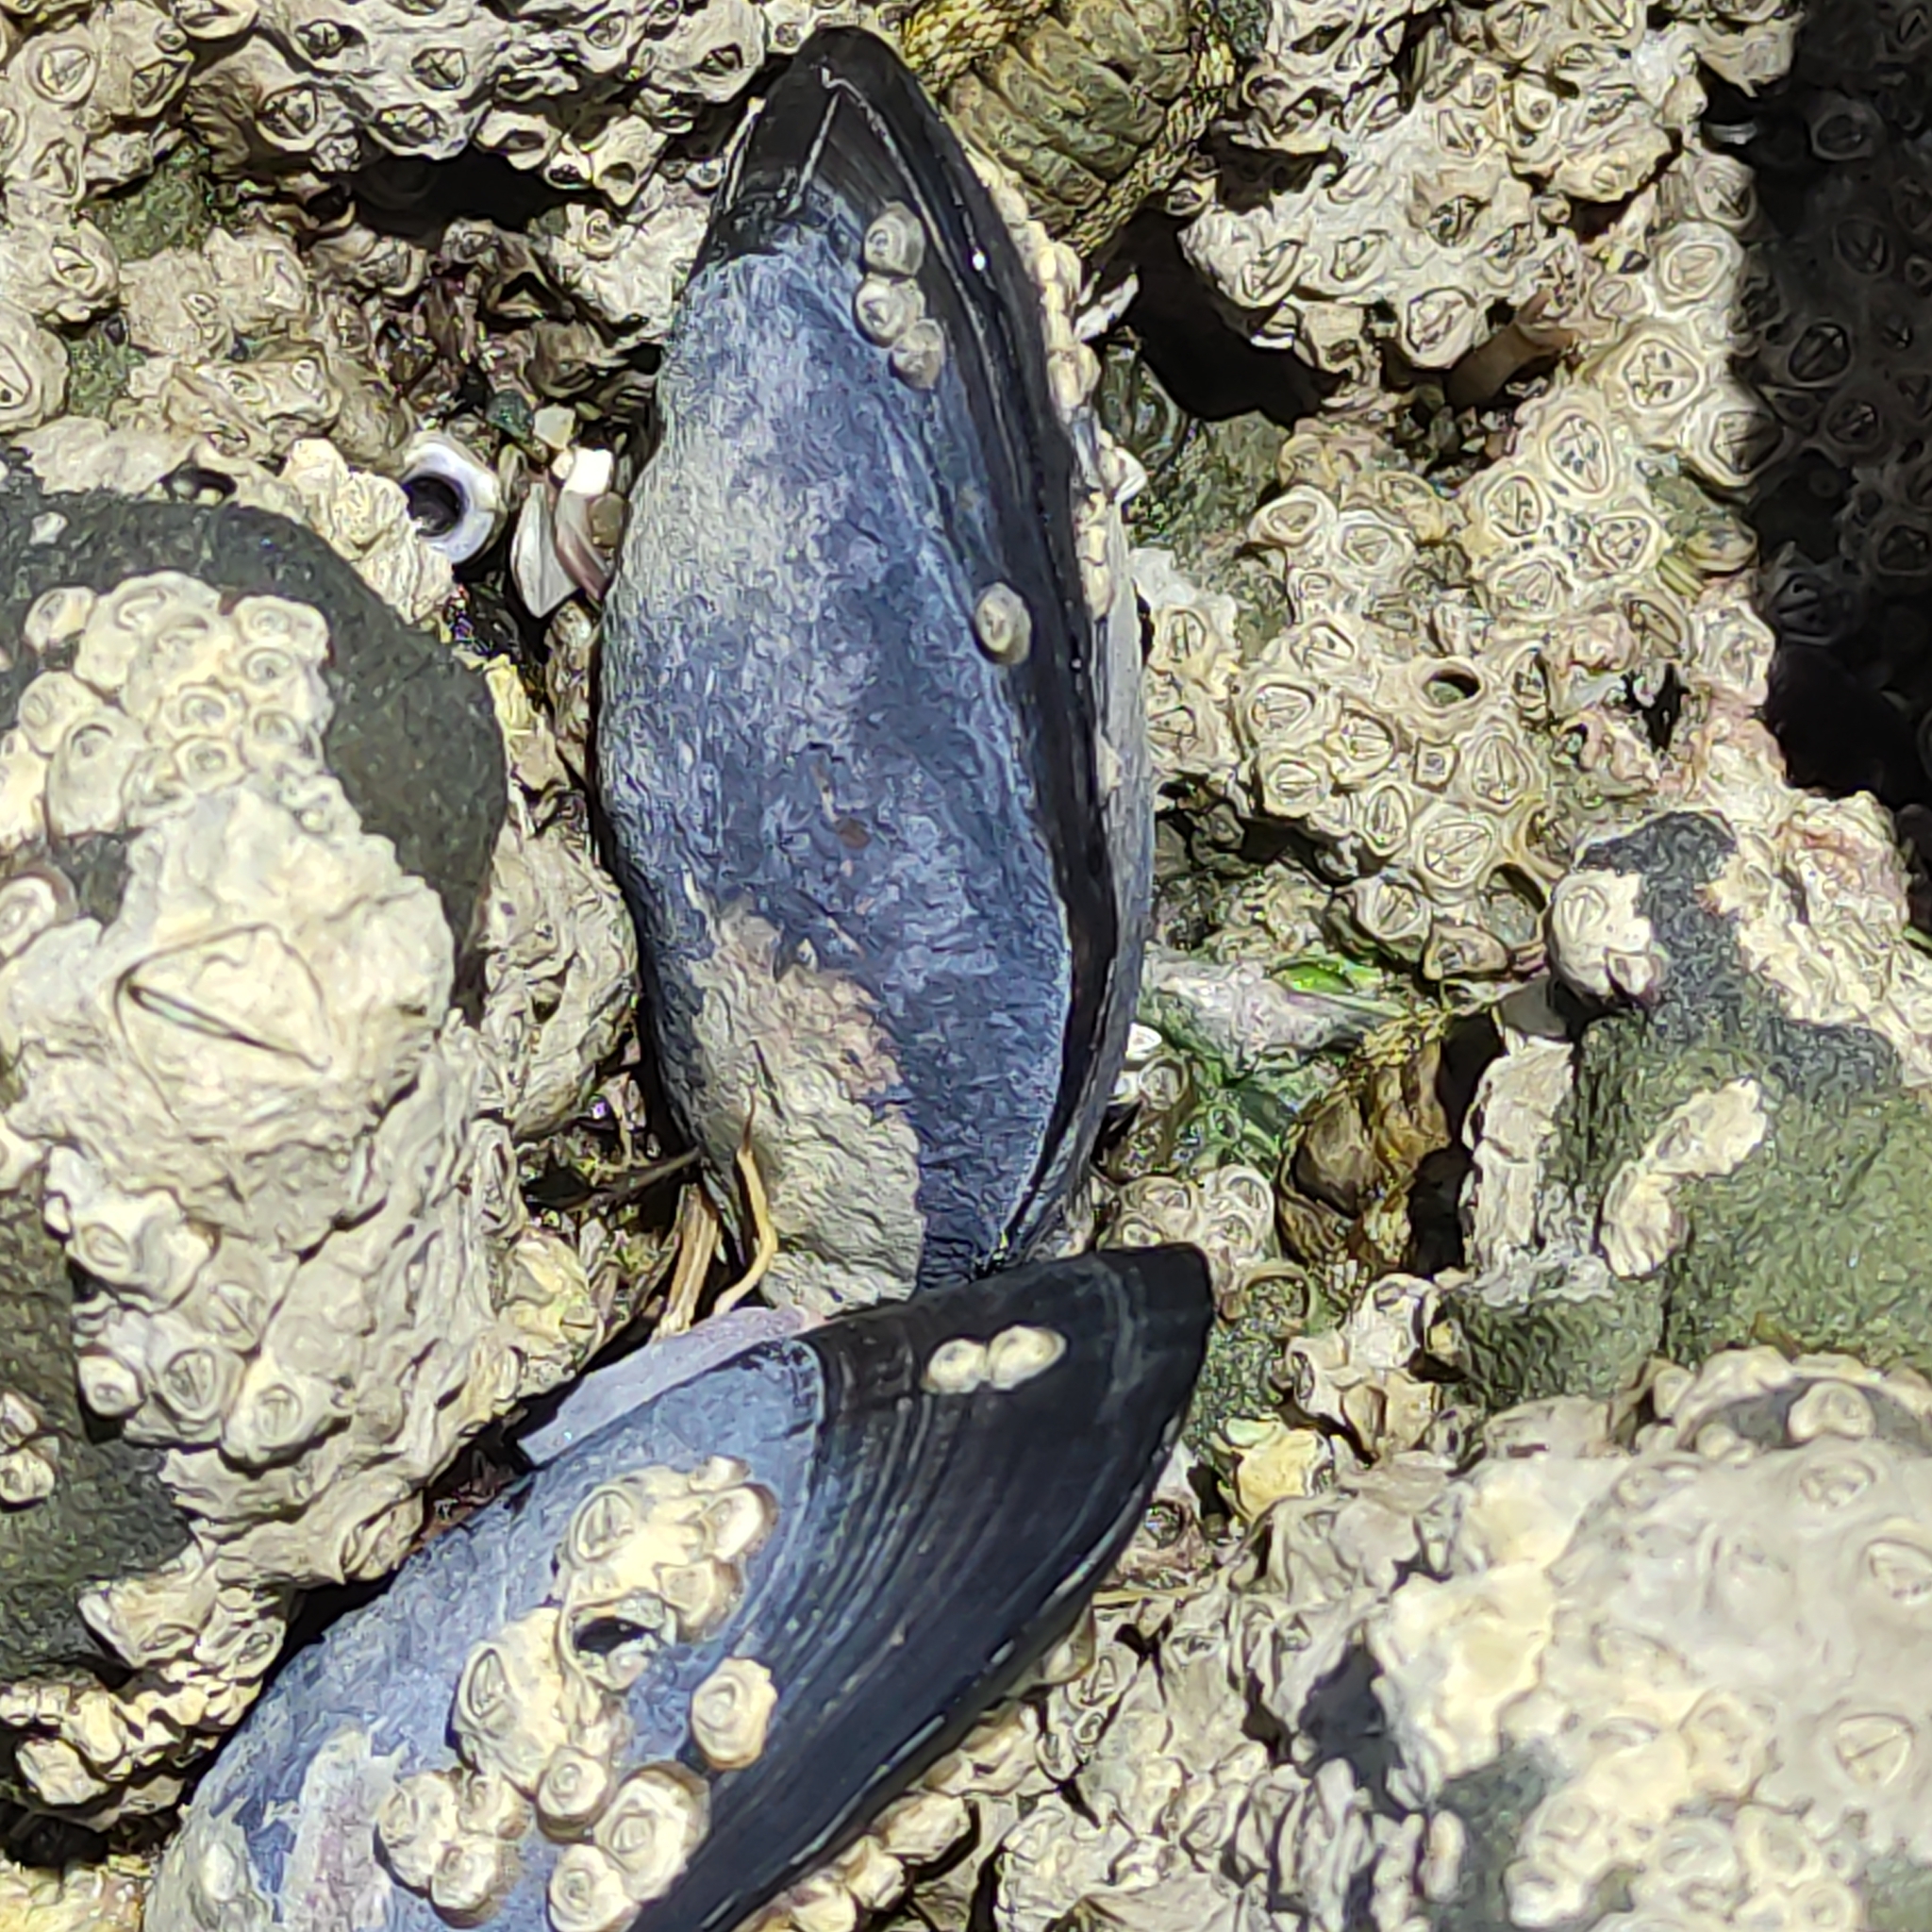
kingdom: Animalia
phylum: Mollusca
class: Bivalvia
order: Mytilida
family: Mytilidae
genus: Mytilus
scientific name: Mytilus planulatus
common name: Australian mussel
